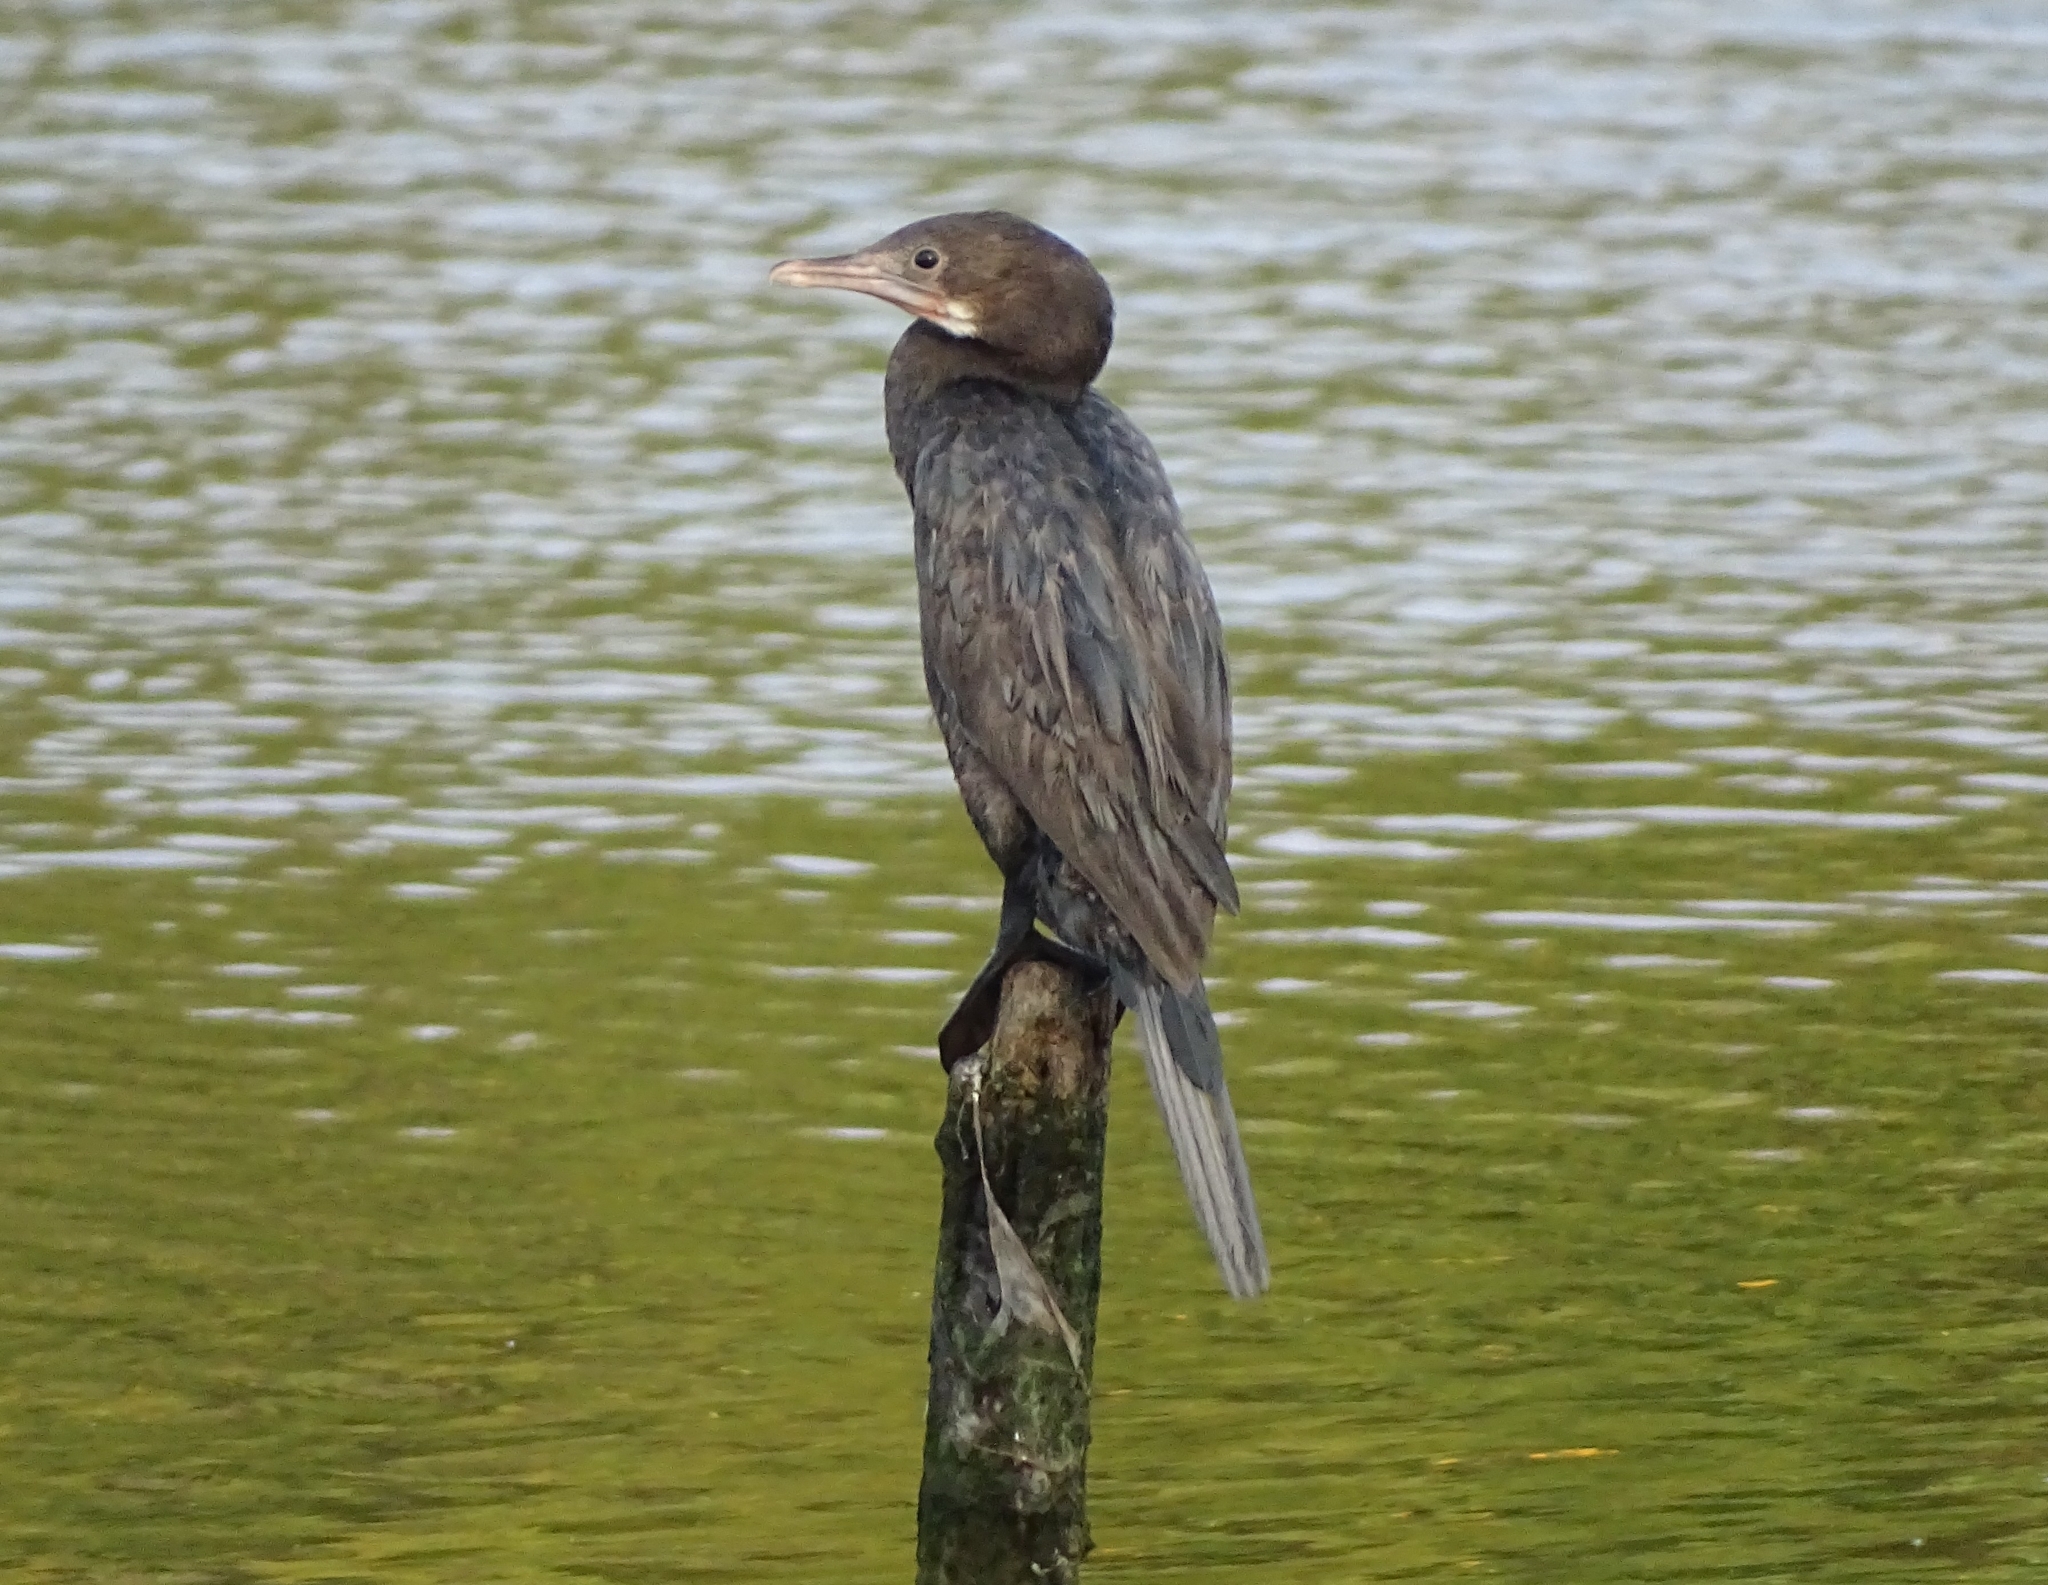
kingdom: Animalia
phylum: Chordata
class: Aves
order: Suliformes
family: Phalacrocoracidae
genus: Microcarbo
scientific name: Microcarbo niger
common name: Little cormorant
